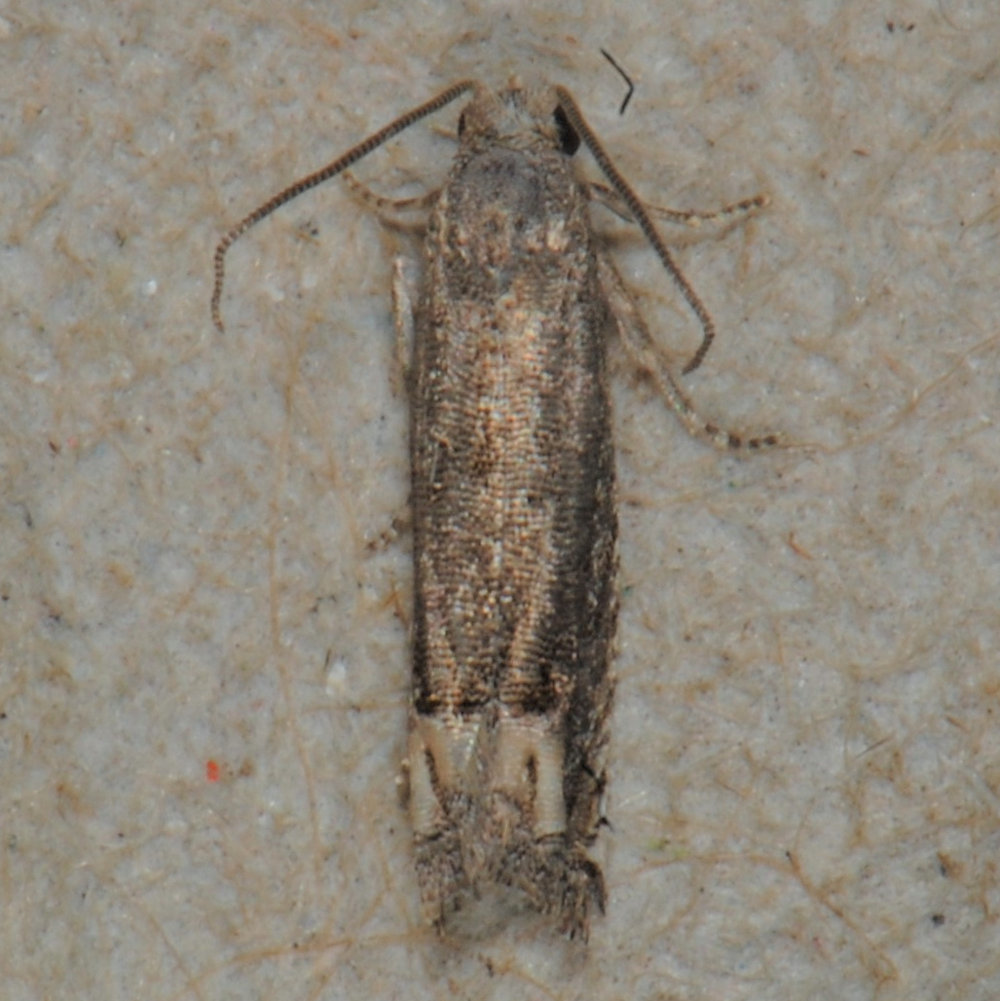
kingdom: Animalia
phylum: Arthropoda
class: Insecta
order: Lepidoptera
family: Tortricidae
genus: Epiblema
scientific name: Epiblema strenuana
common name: Ragweed borer moth
